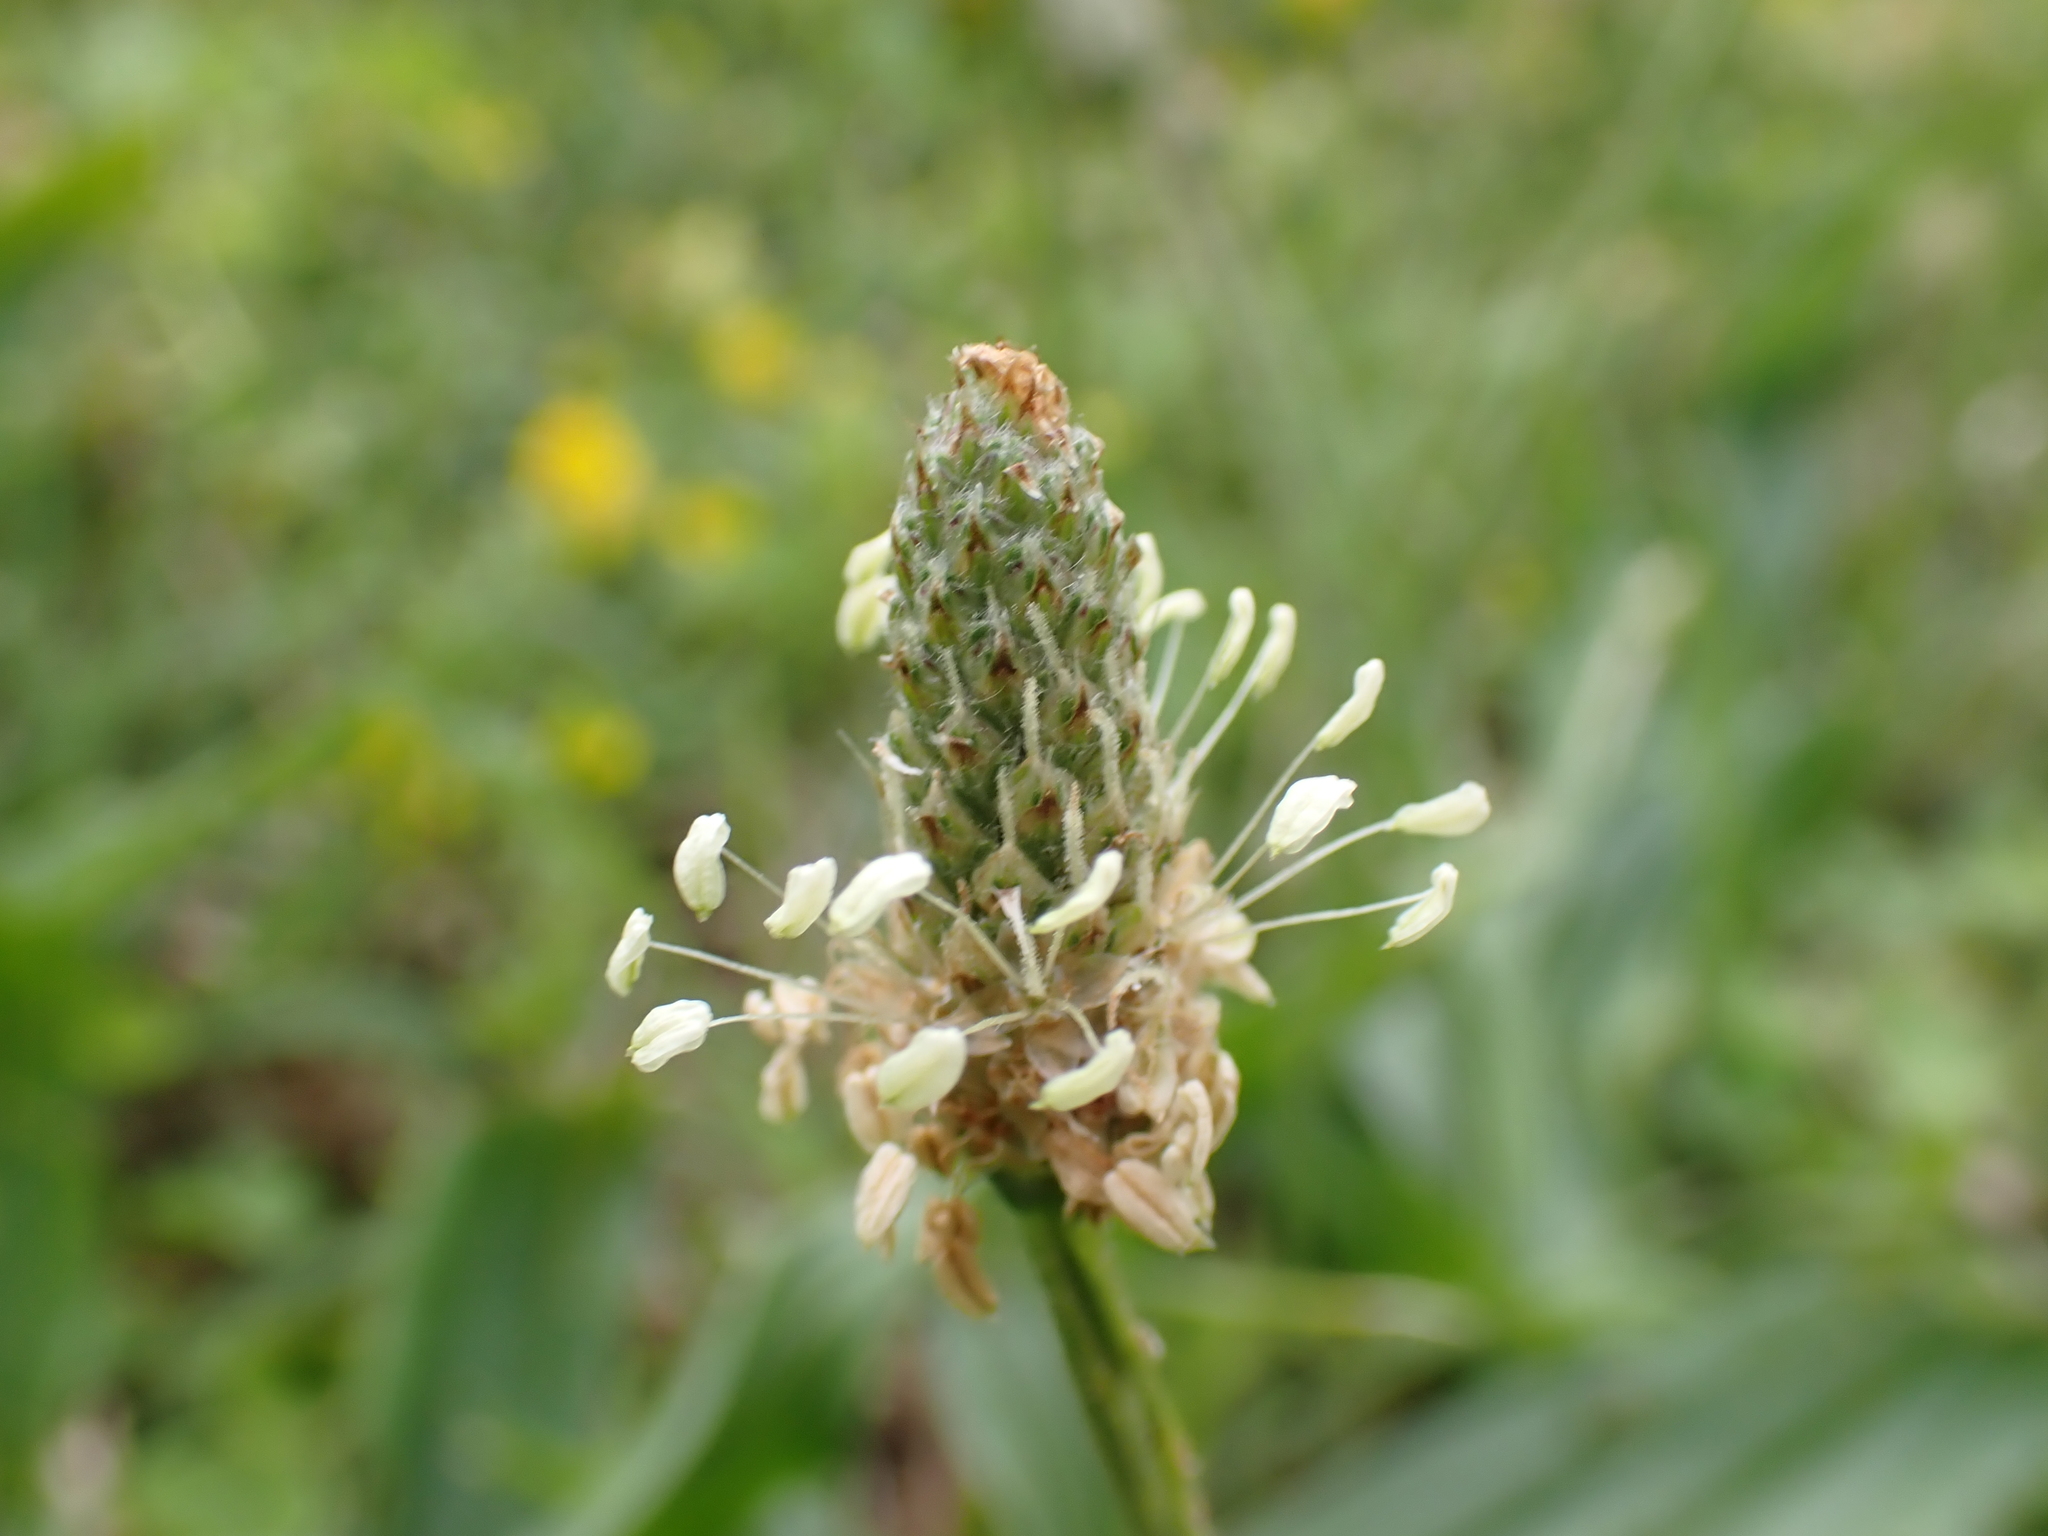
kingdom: Plantae
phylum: Tracheophyta
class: Magnoliopsida
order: Lamiales
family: Plantaginaceae
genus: Plantago
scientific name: Plantago lanceolata
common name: Ribwort plantain
